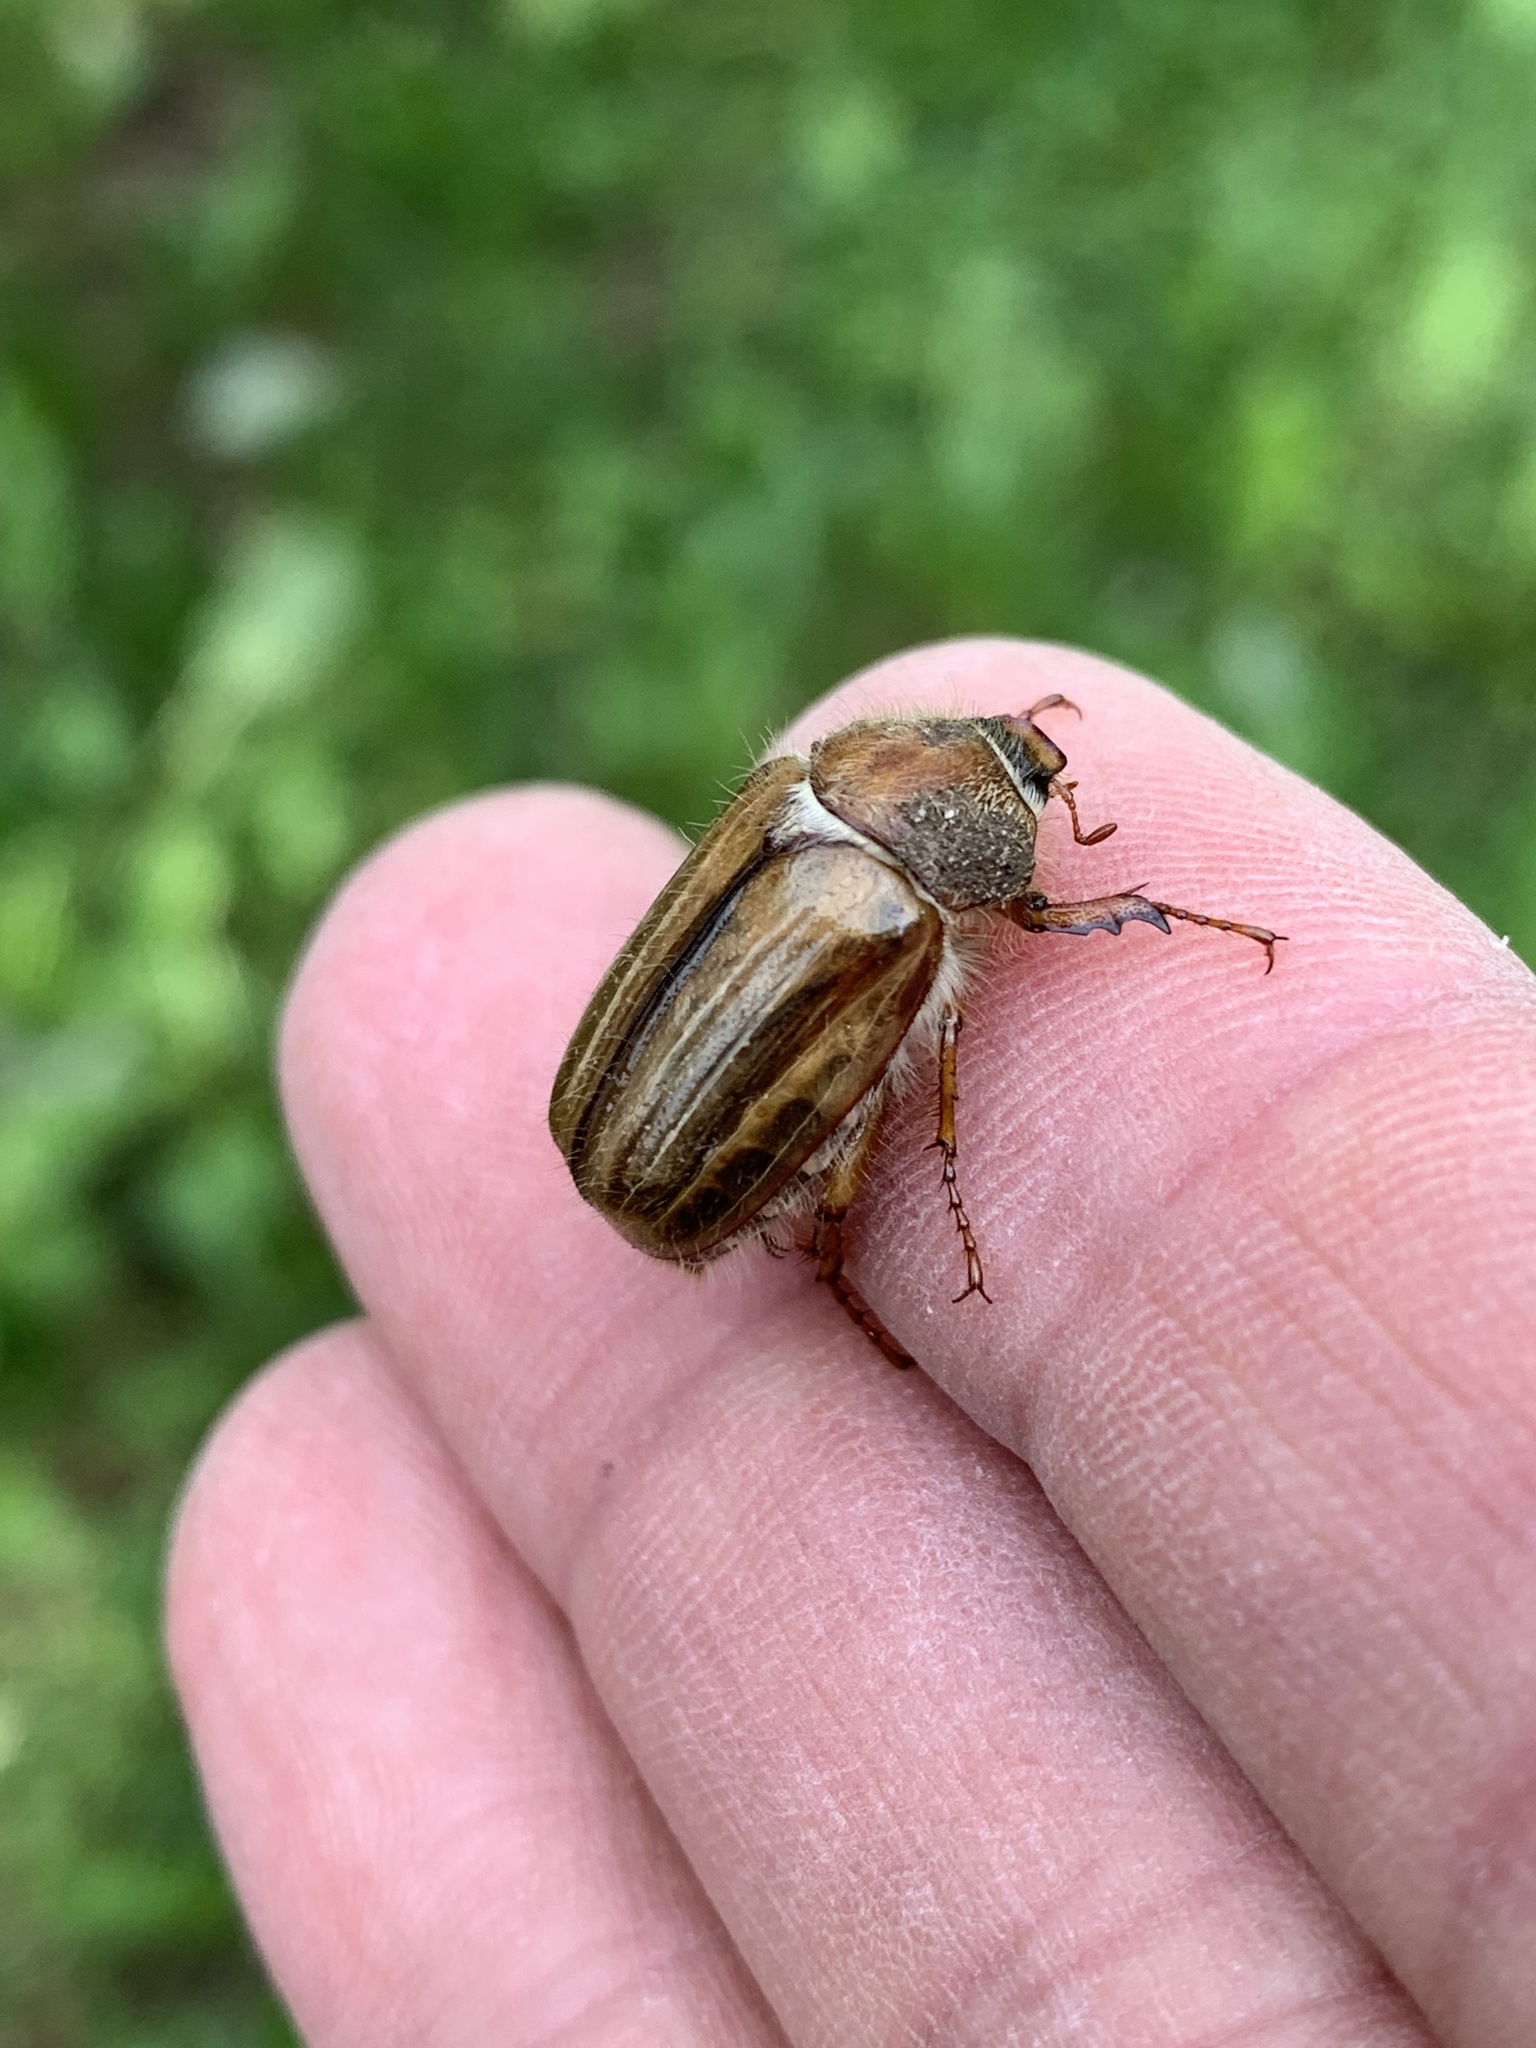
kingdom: Animalia
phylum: Arthropoda
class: Insecta
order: Coleoptera
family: Scarabaeidae
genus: Amphimallon
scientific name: Amphimallon solstitiale
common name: Summer chafer
